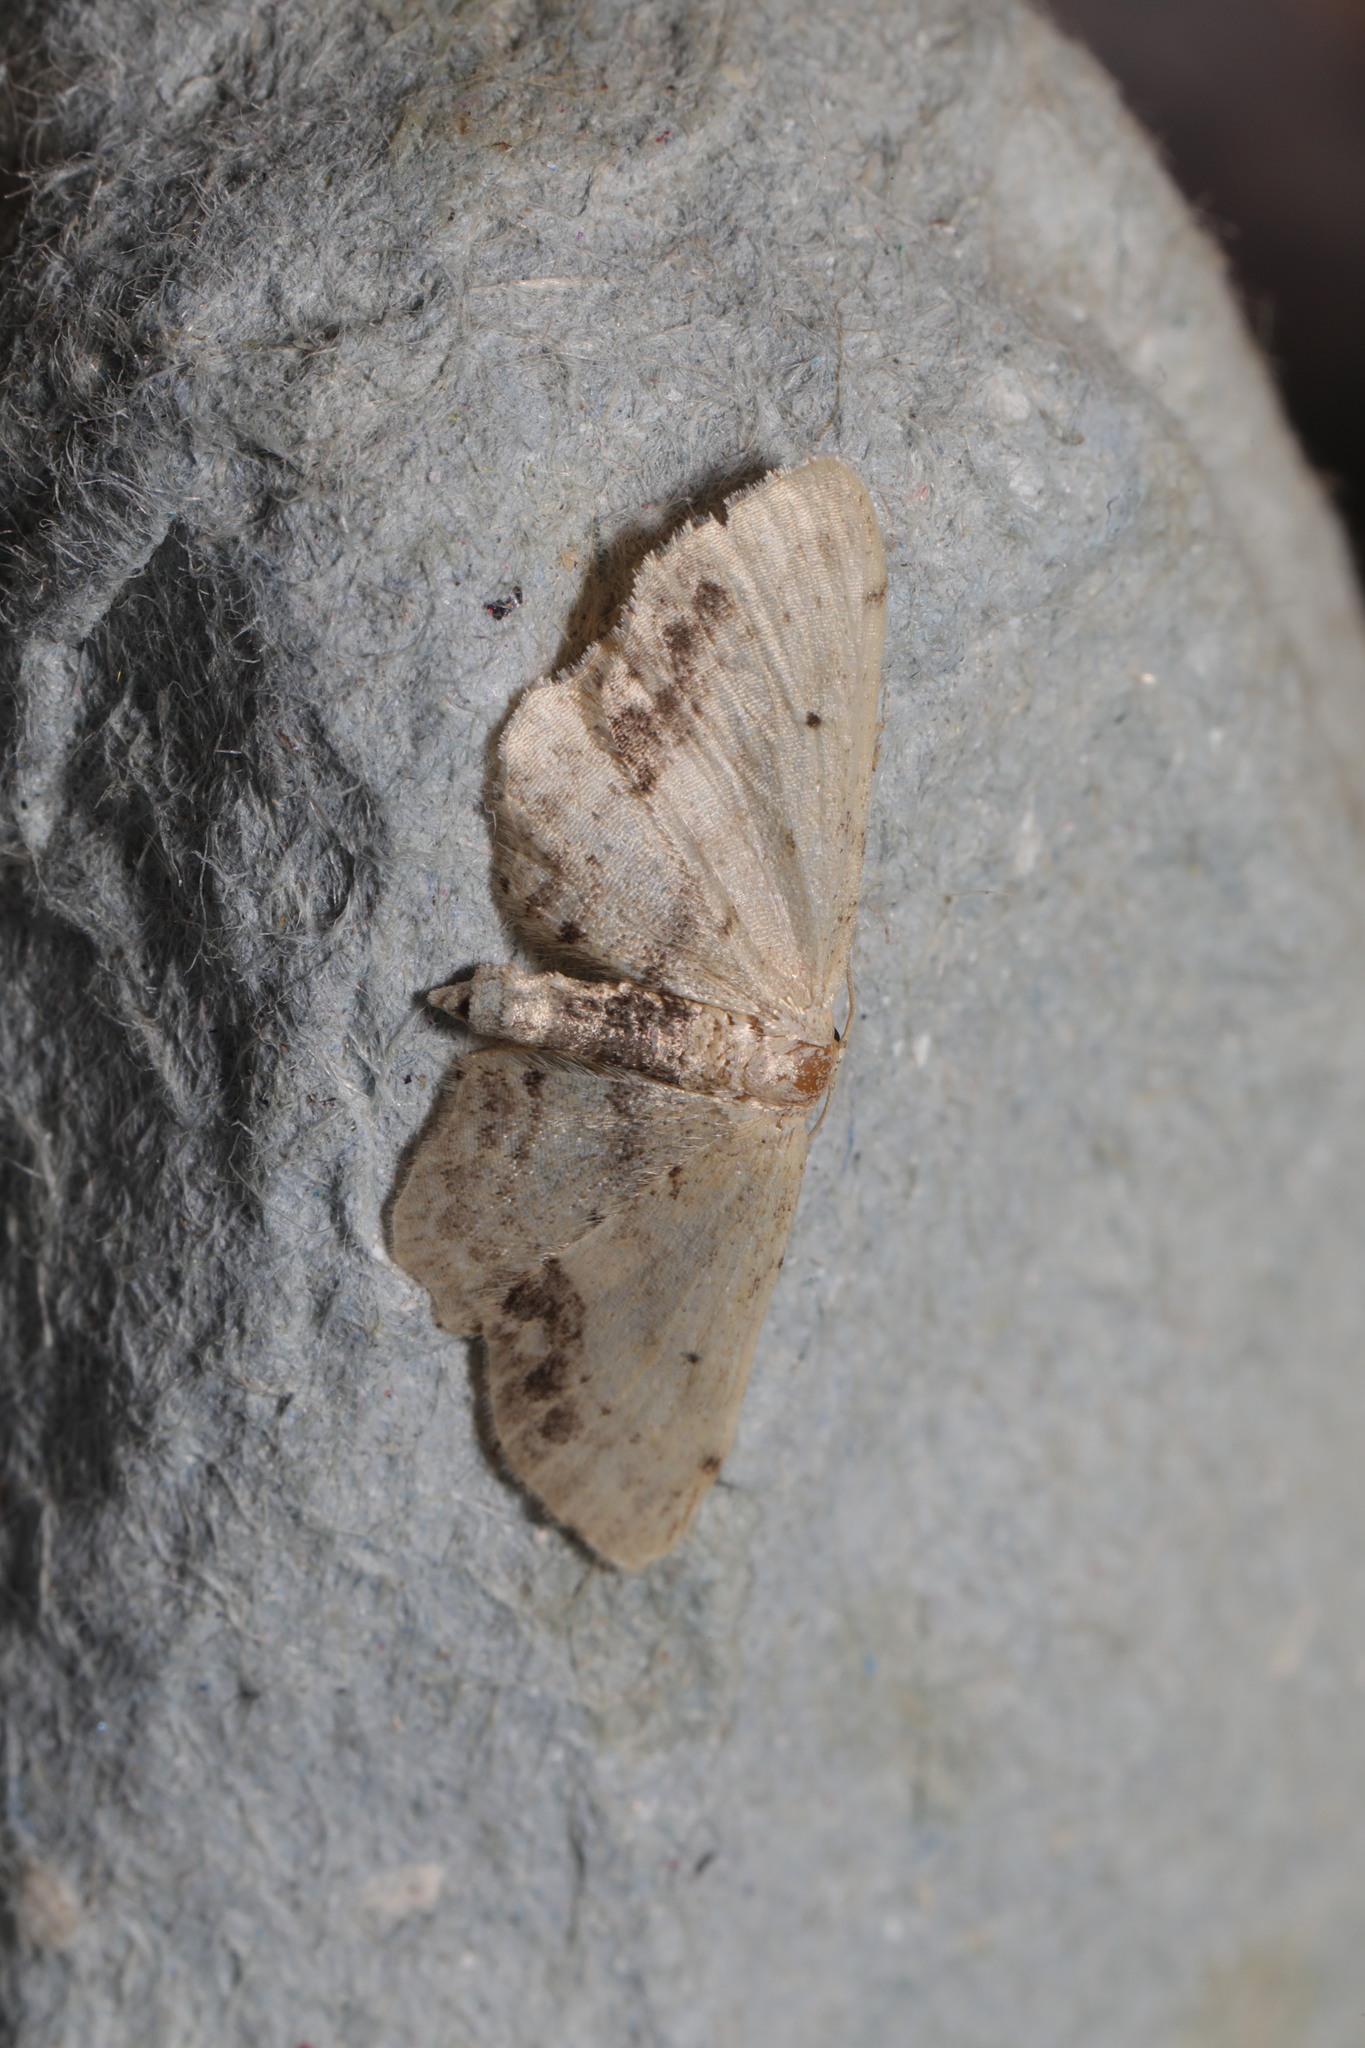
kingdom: Animalia
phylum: Arthropoda
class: Insecta
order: Lepidoptera
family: Geometridae
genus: Idaea
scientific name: Idaea dimidiata
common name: Single-dotted wave
